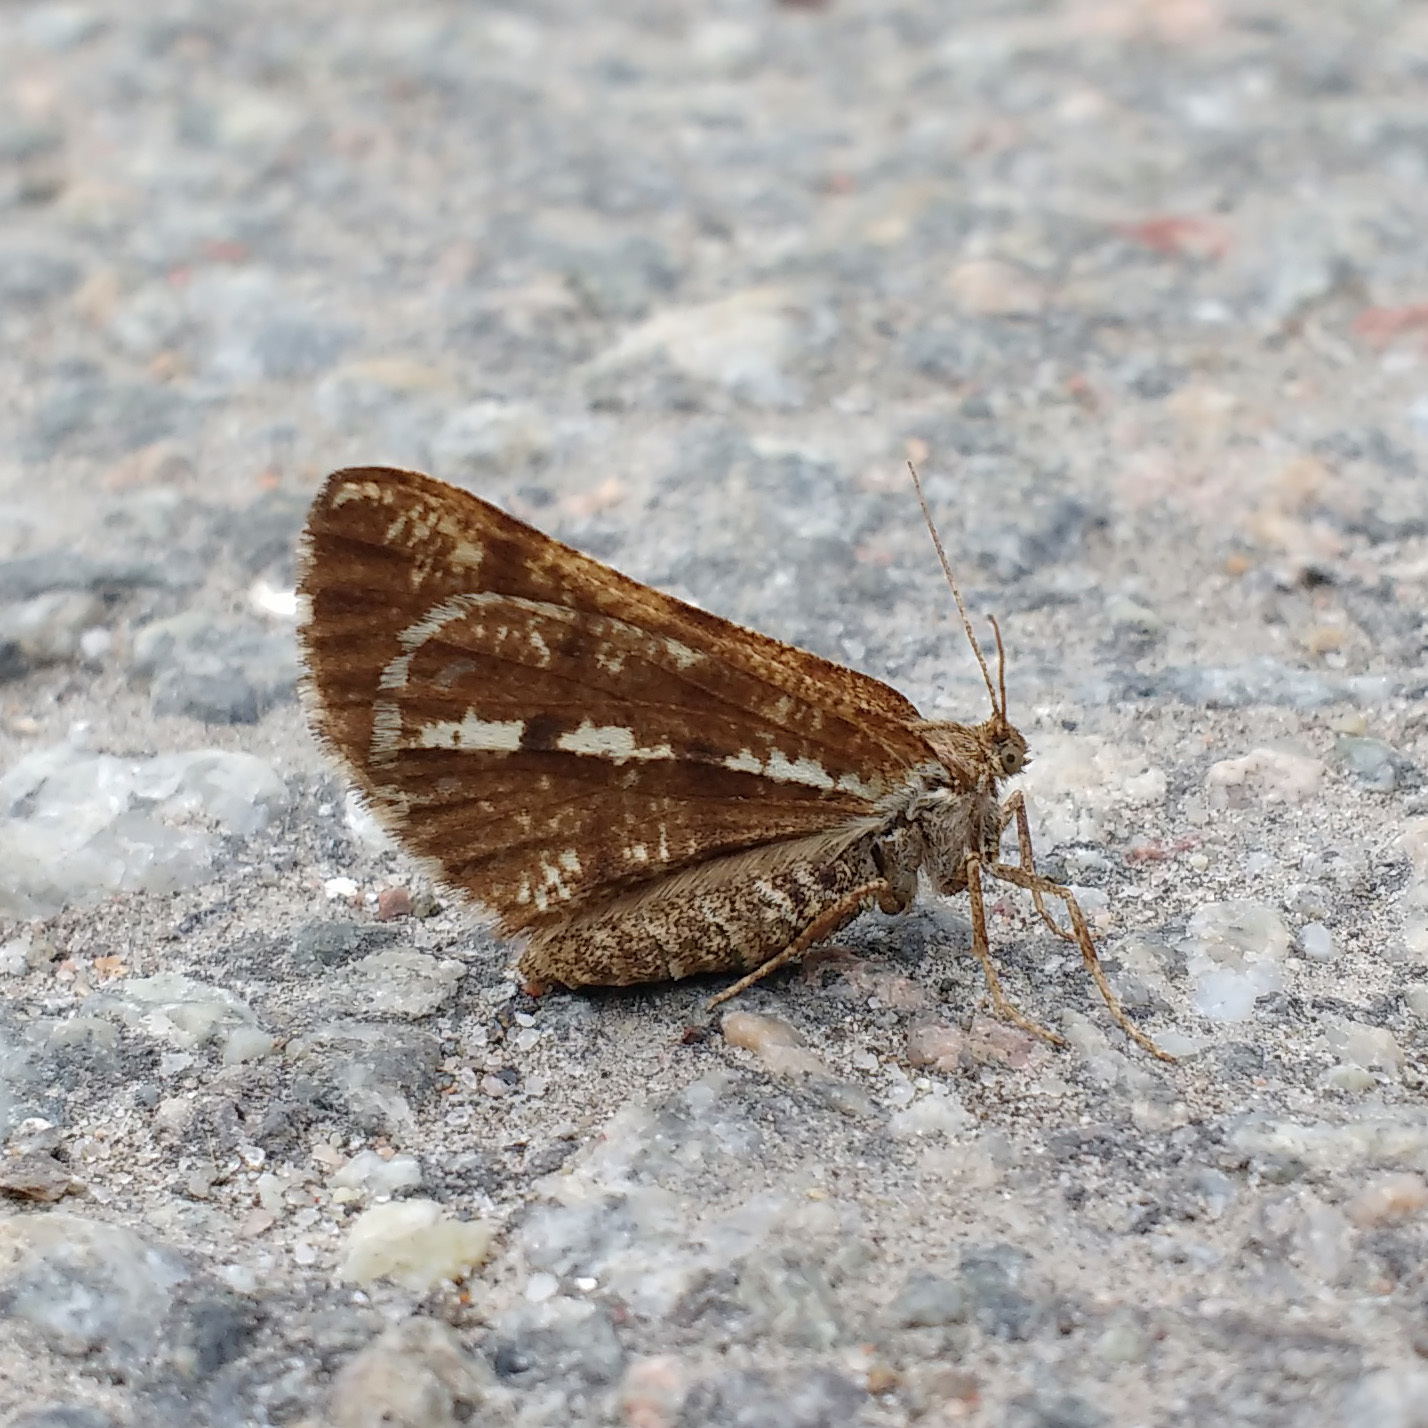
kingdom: Animalia
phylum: Arthropoda
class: Insecta
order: Lepidoptera
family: Geometridae
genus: Bupalus
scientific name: Bupalus piniaria
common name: Bordered white
